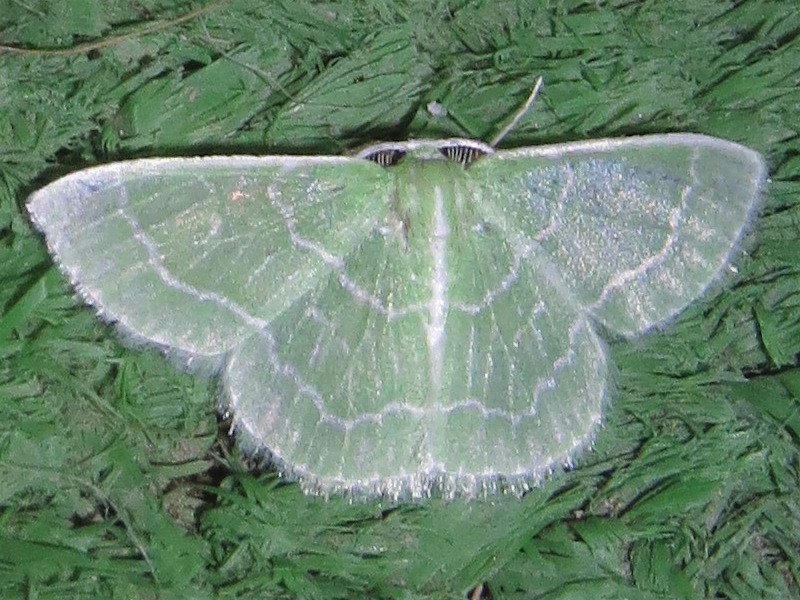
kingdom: Animalia
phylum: Arthropoda
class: Insecta
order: Lepidoptera
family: Geometridae
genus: Synchlora
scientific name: Synchlora aerata
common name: Wavy-lined emerald
